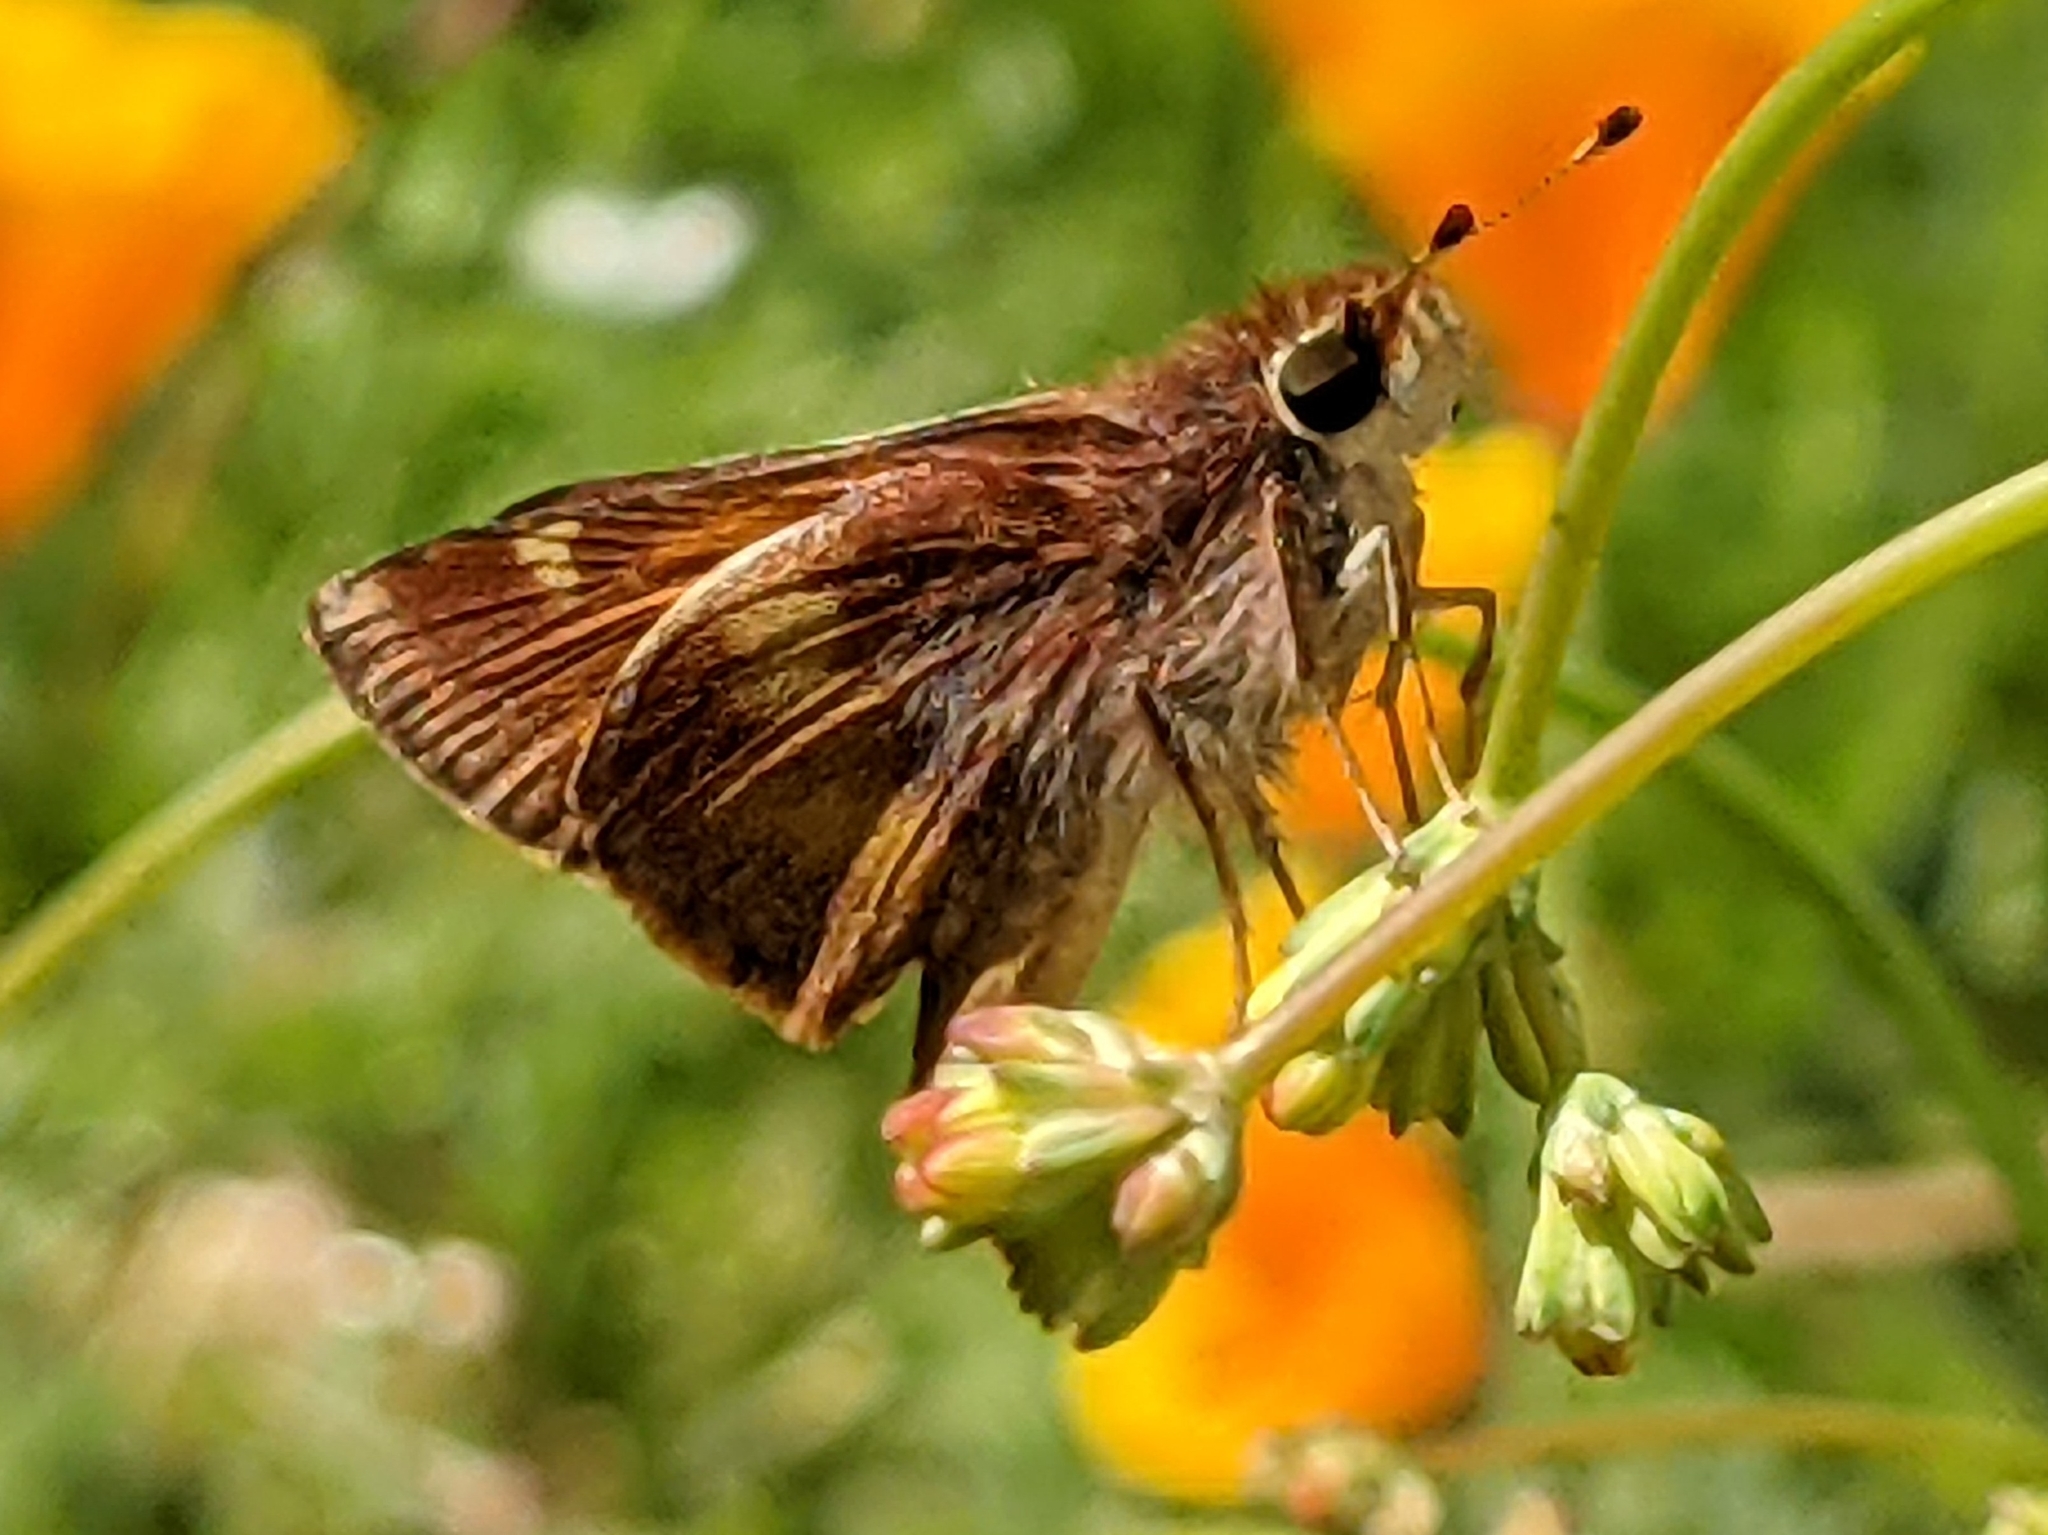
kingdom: Animalia
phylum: Arthropoda
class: Insecta
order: Lepidoptera
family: Hesperiidae
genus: Lon
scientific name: Lon melane
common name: Umber skipper
